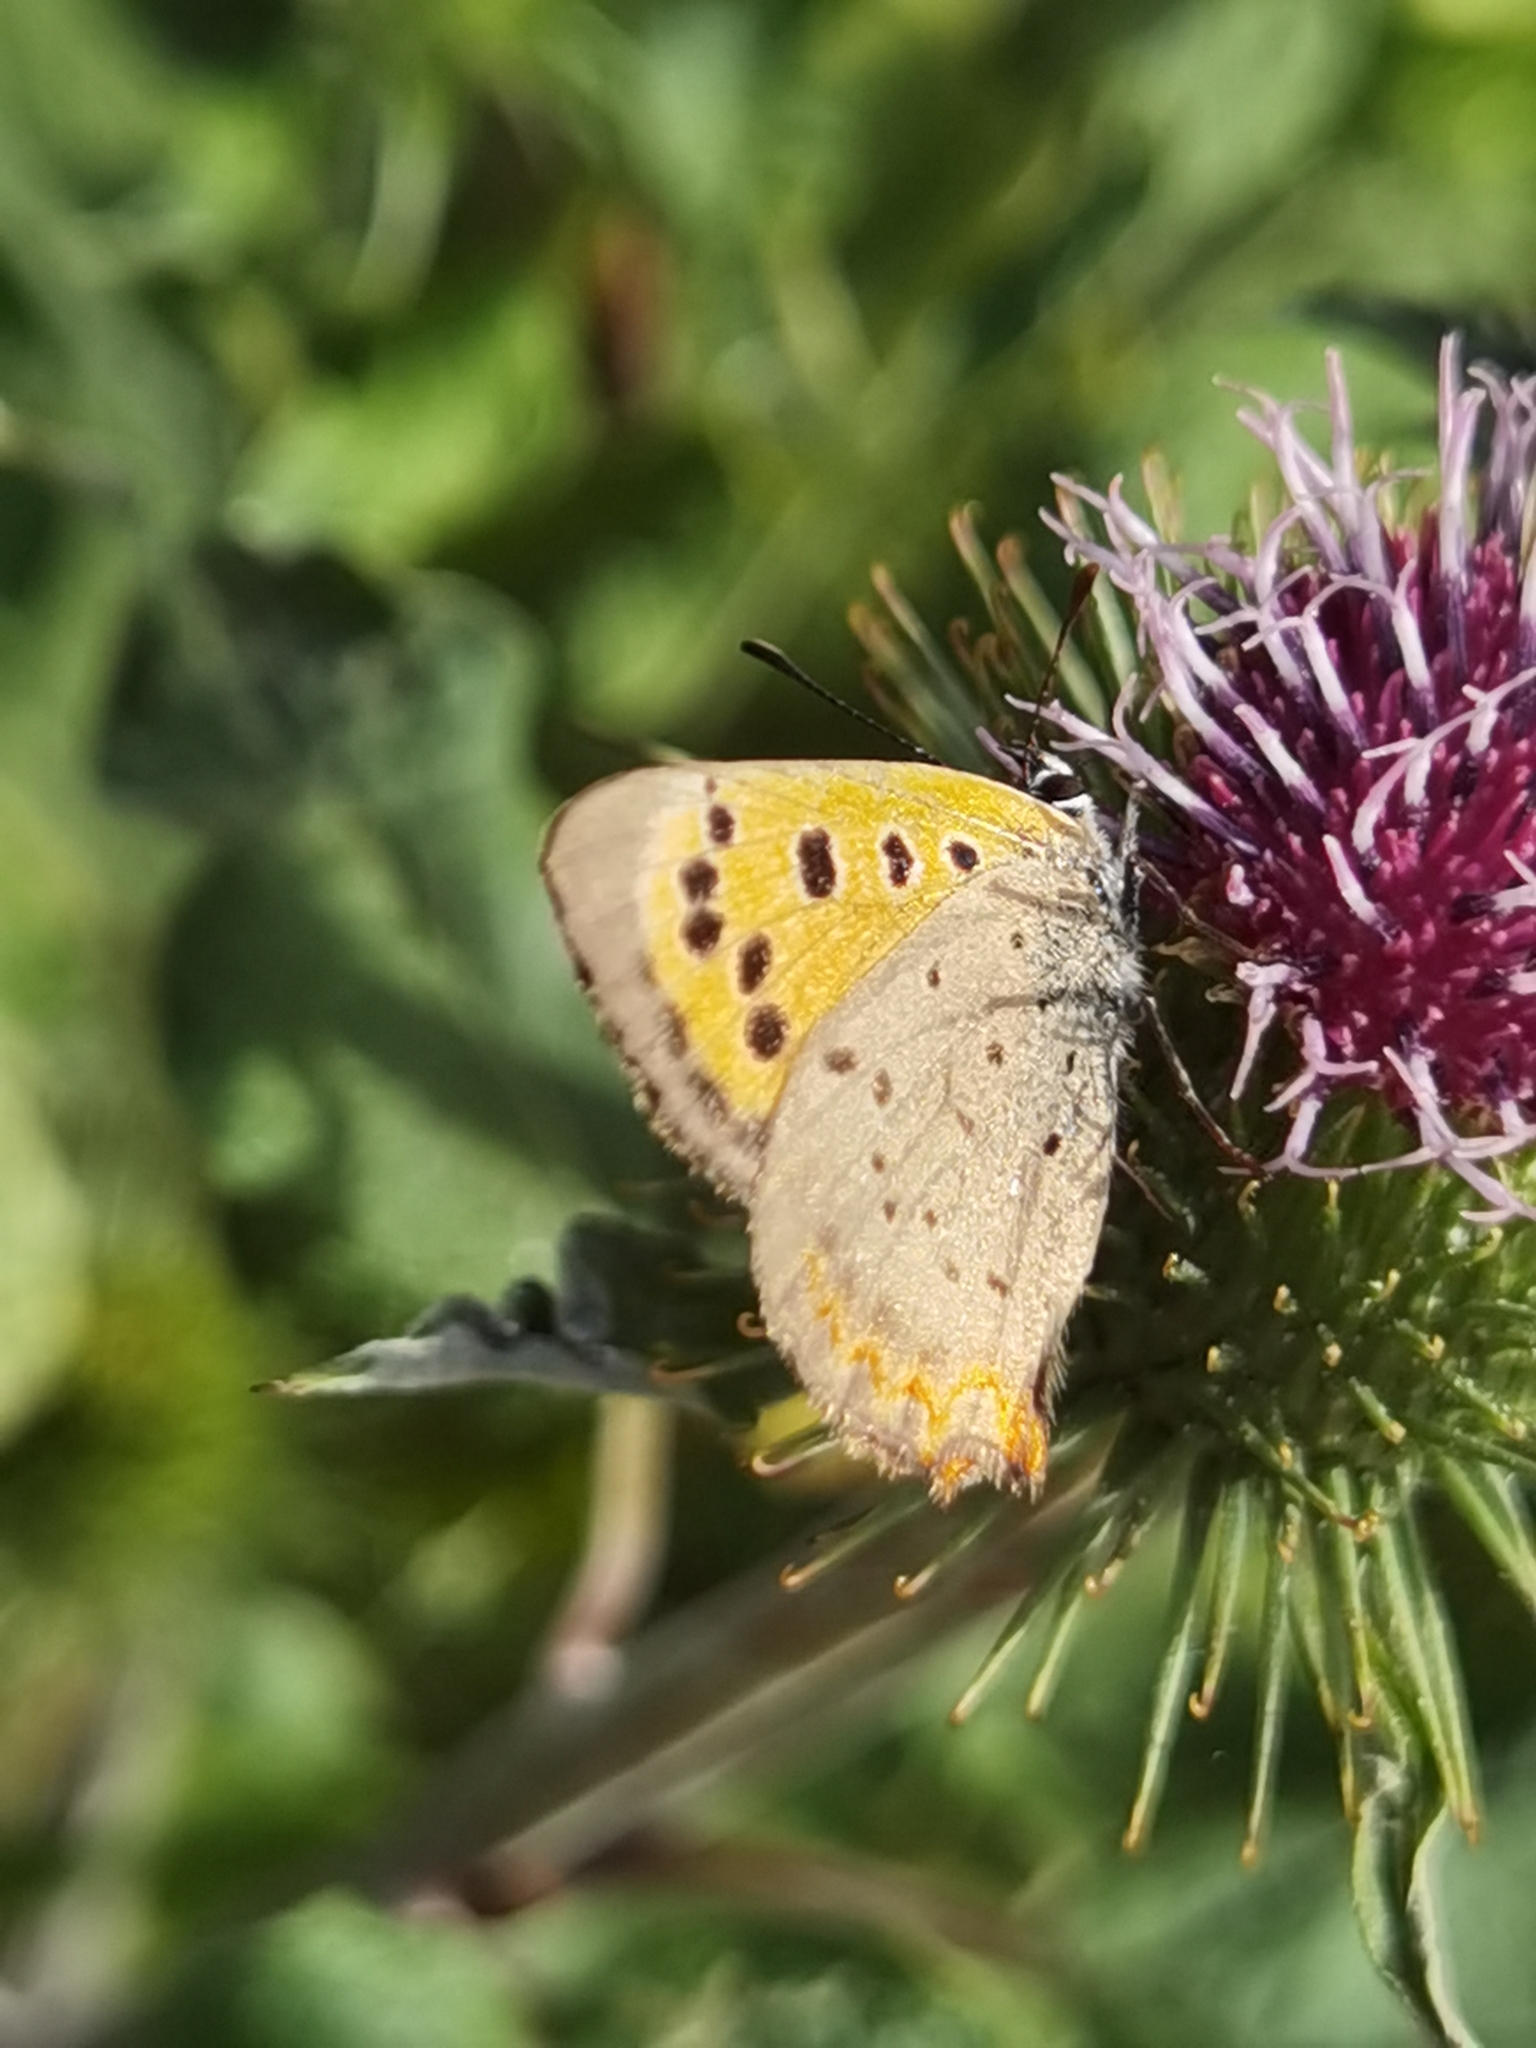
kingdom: Animalia
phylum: Arthropoda
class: Insecta
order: Lepidoptera
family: Lycaenidae
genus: Lycaena
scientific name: Lycaena phlaeas
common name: Small copper
